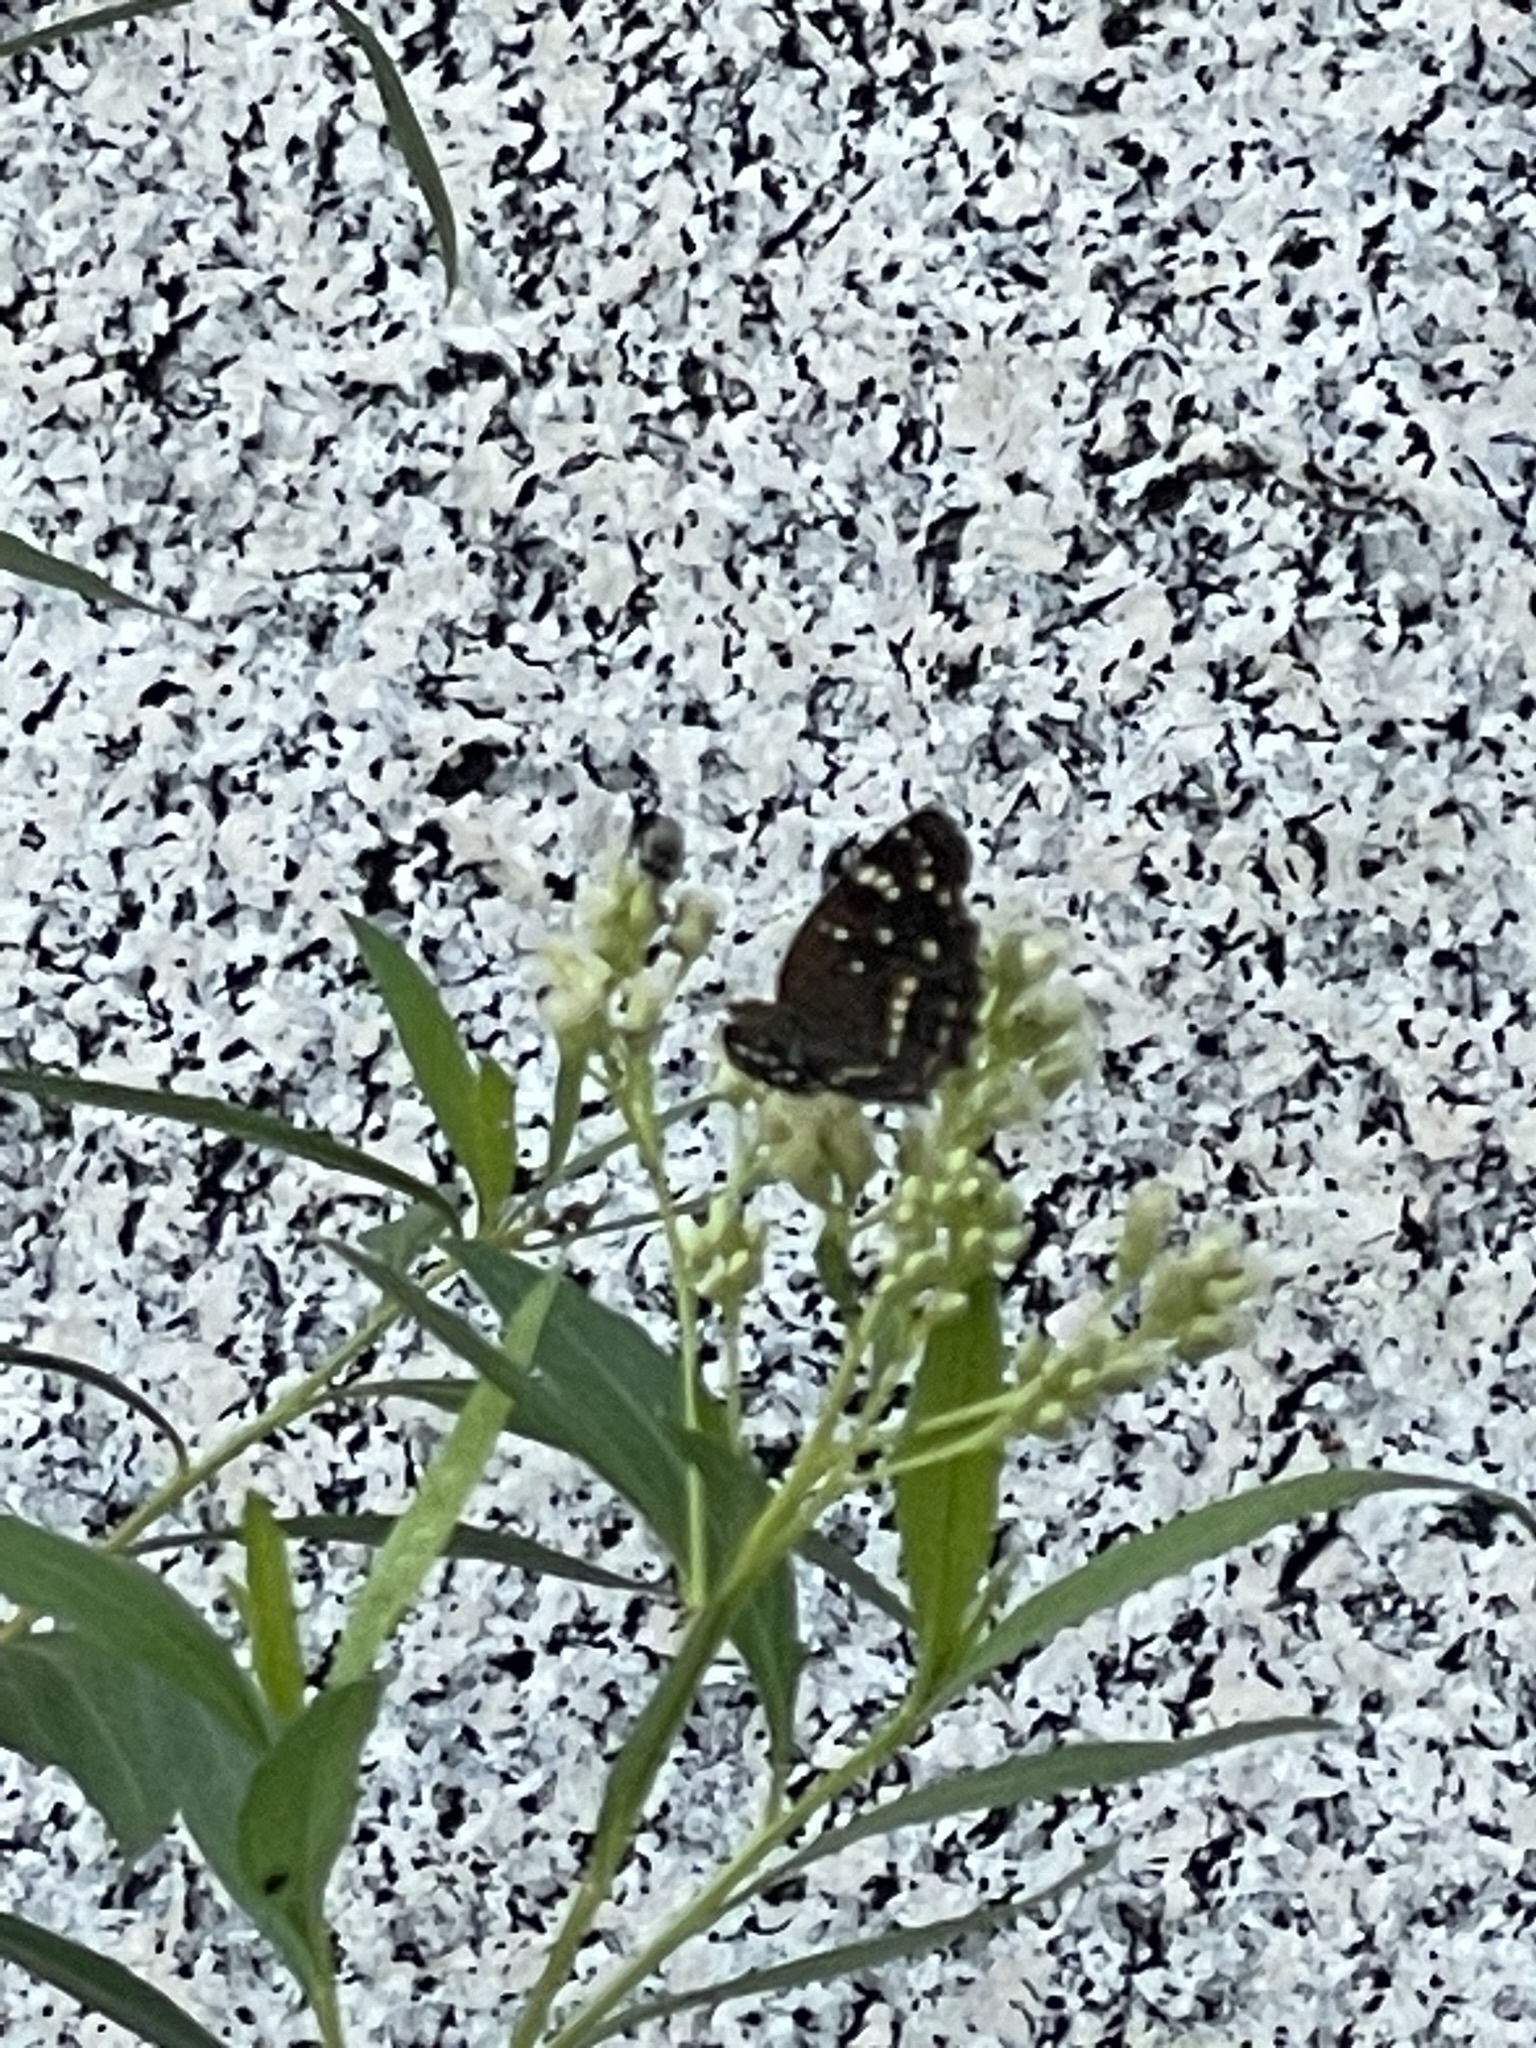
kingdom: Animalia
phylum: Arthropoda
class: Insecta
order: Lepidoptera
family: Nymphalidae
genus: Anthanassa
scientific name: Anthanassa texana
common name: Texan crescent
